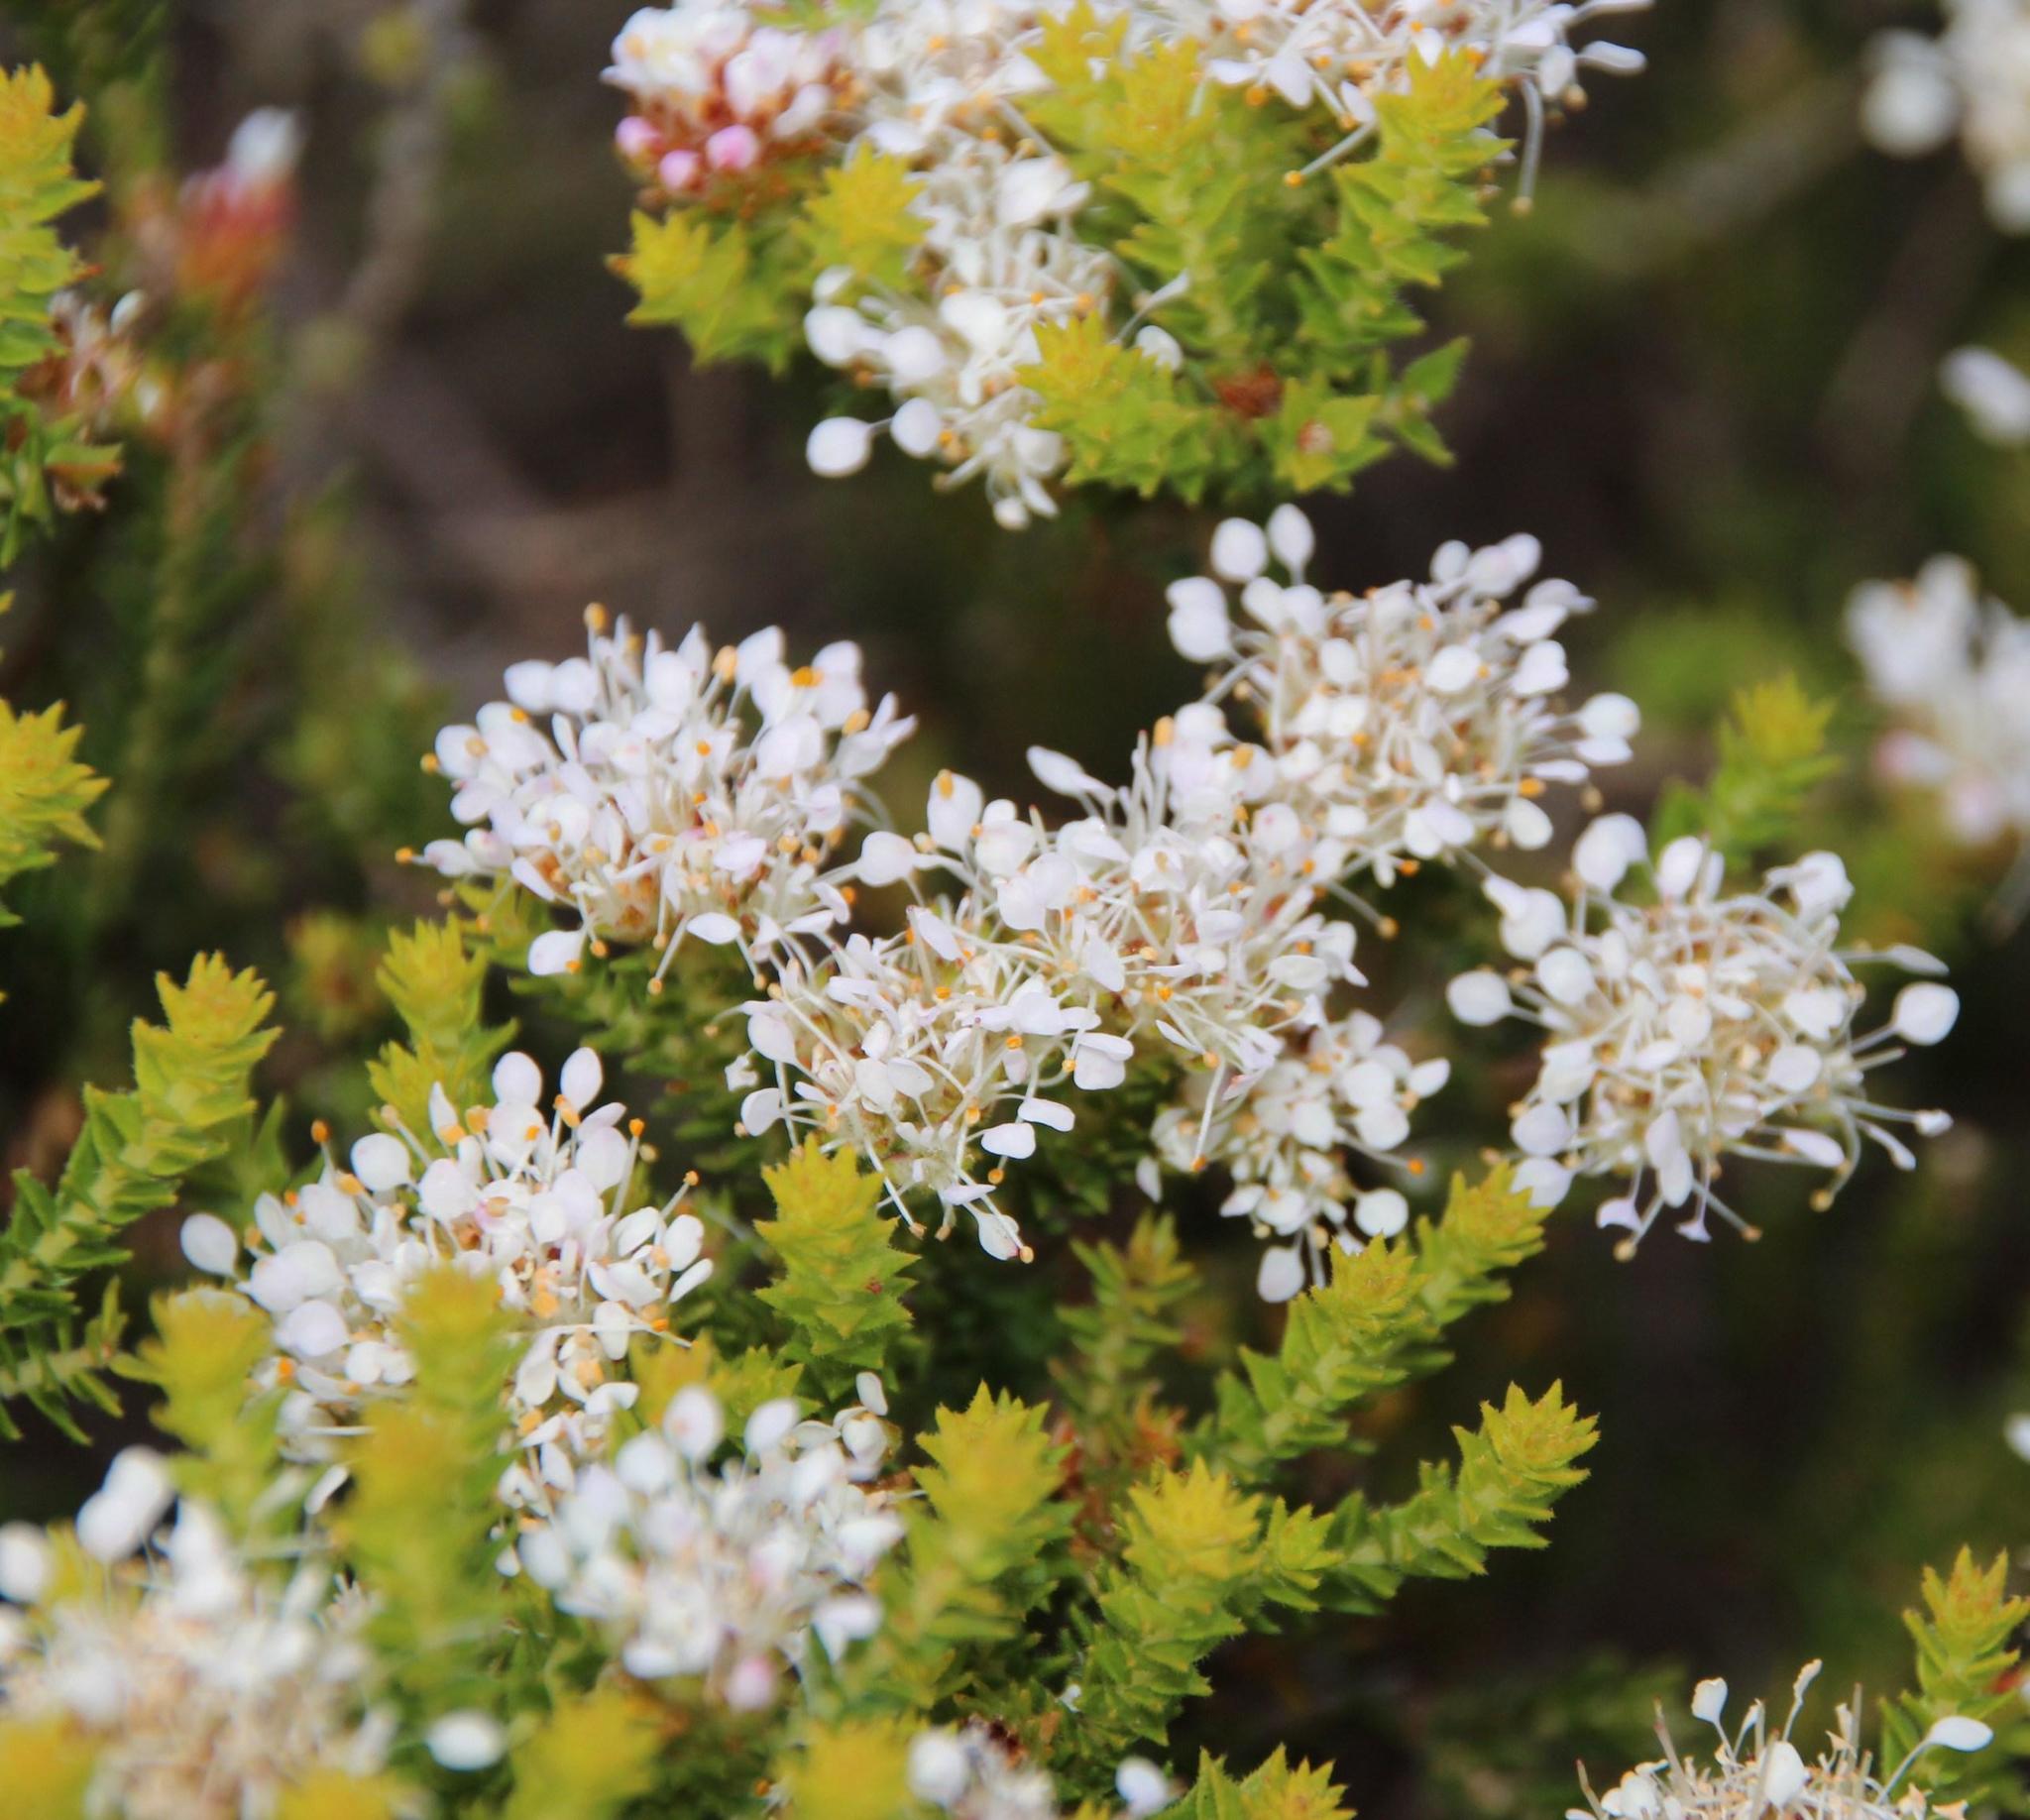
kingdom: Plantae
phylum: Tracheophyta
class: Magnoliopsida
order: Sapindales
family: Rutaceae
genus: Agathosma
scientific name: Agathosma imbricata
